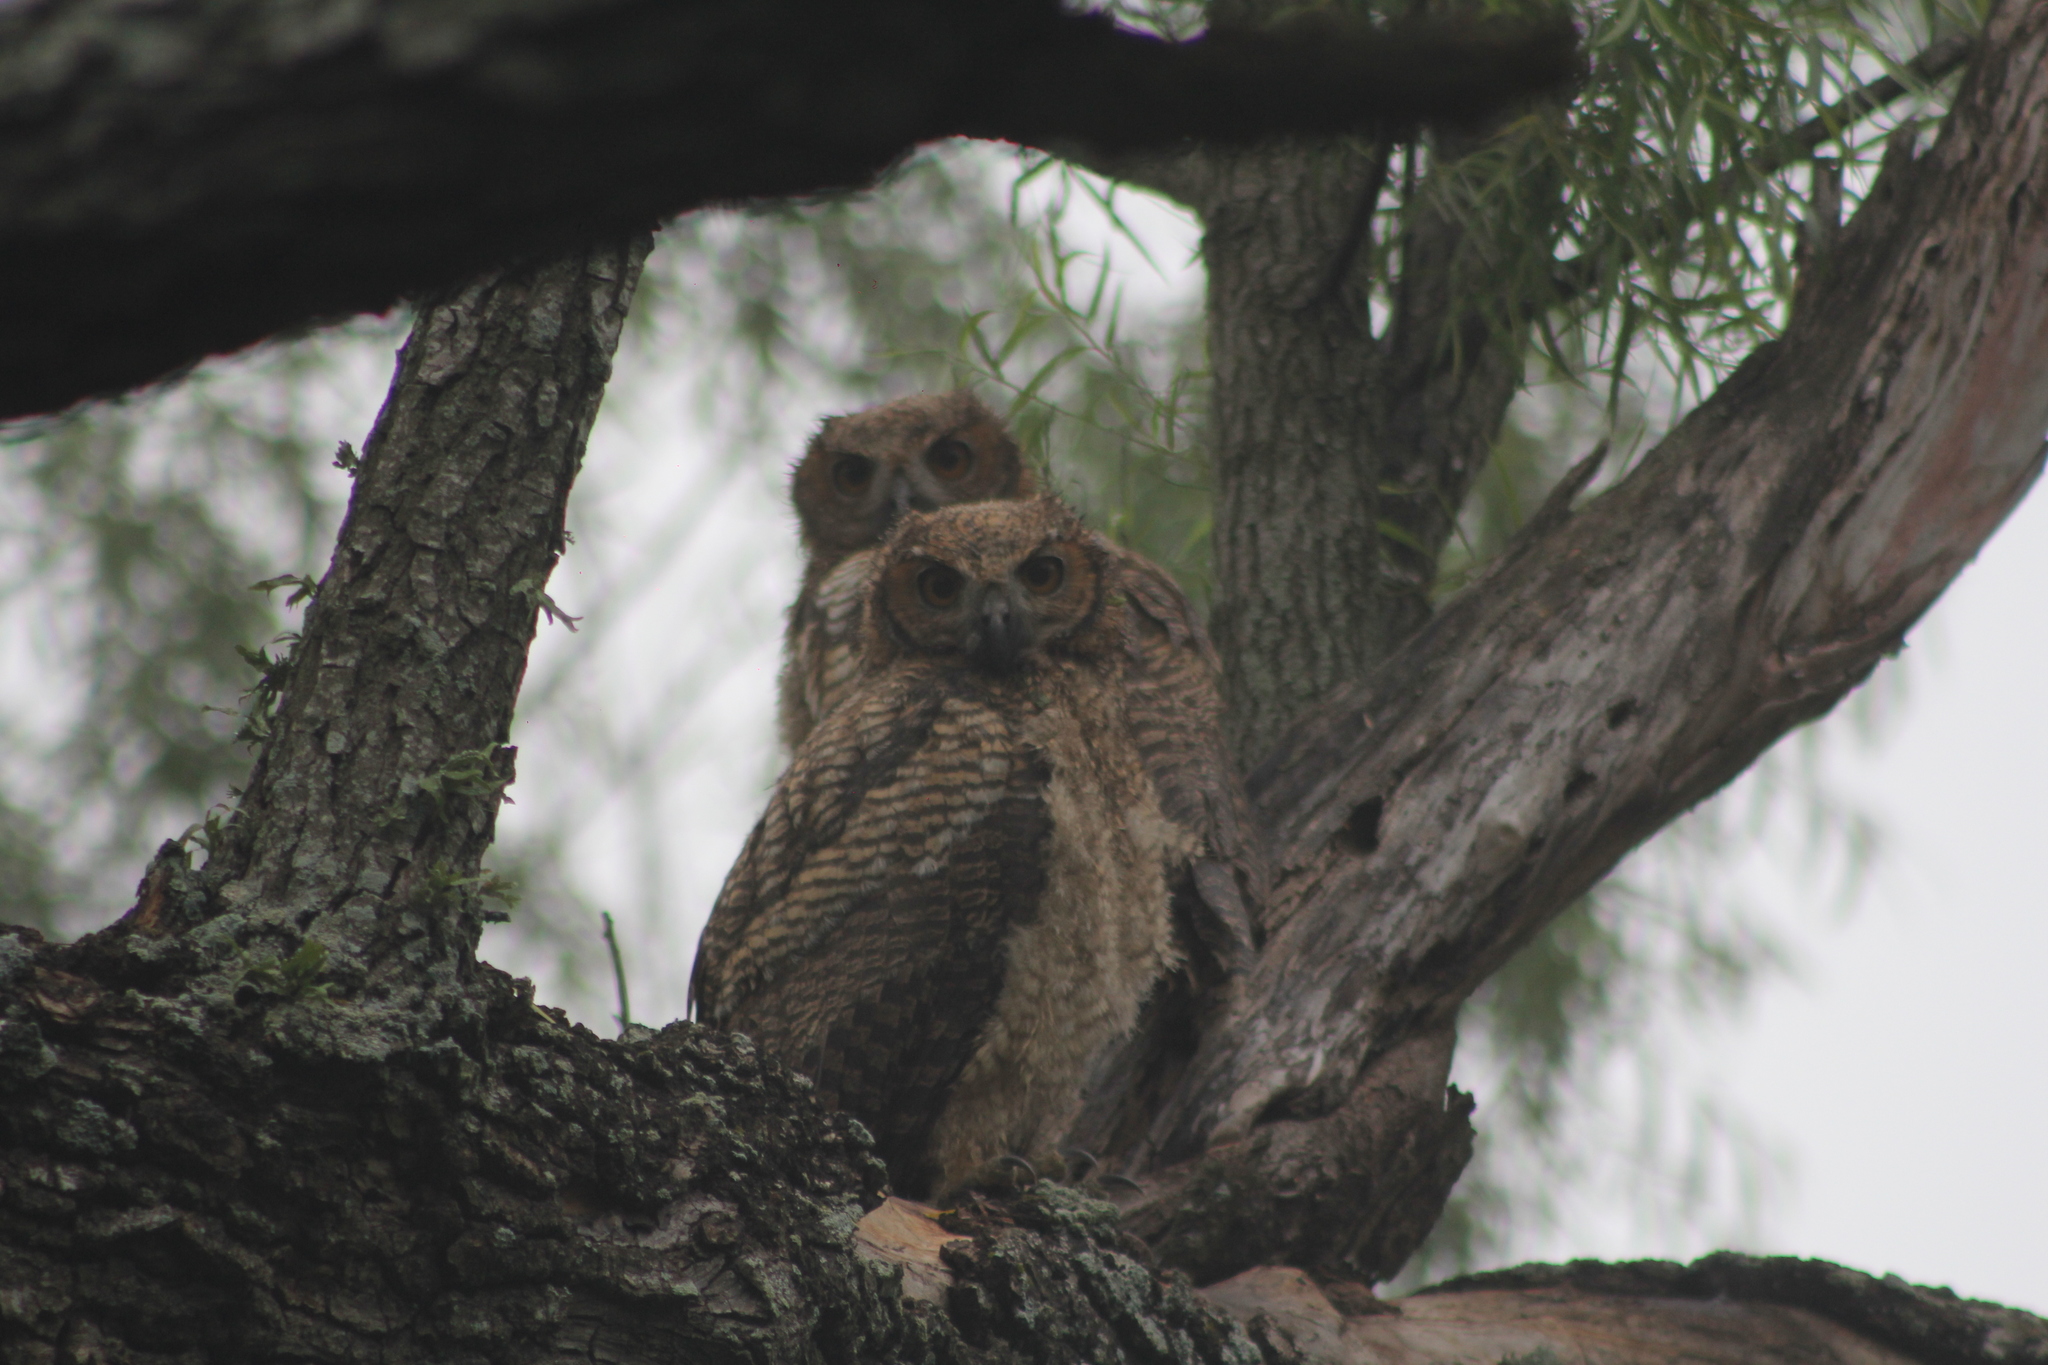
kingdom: Animalia
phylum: Chordata
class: Aves
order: Strigiformes
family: Strigidae
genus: Bubo
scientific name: Bubo virginianus
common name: Great horned owl
